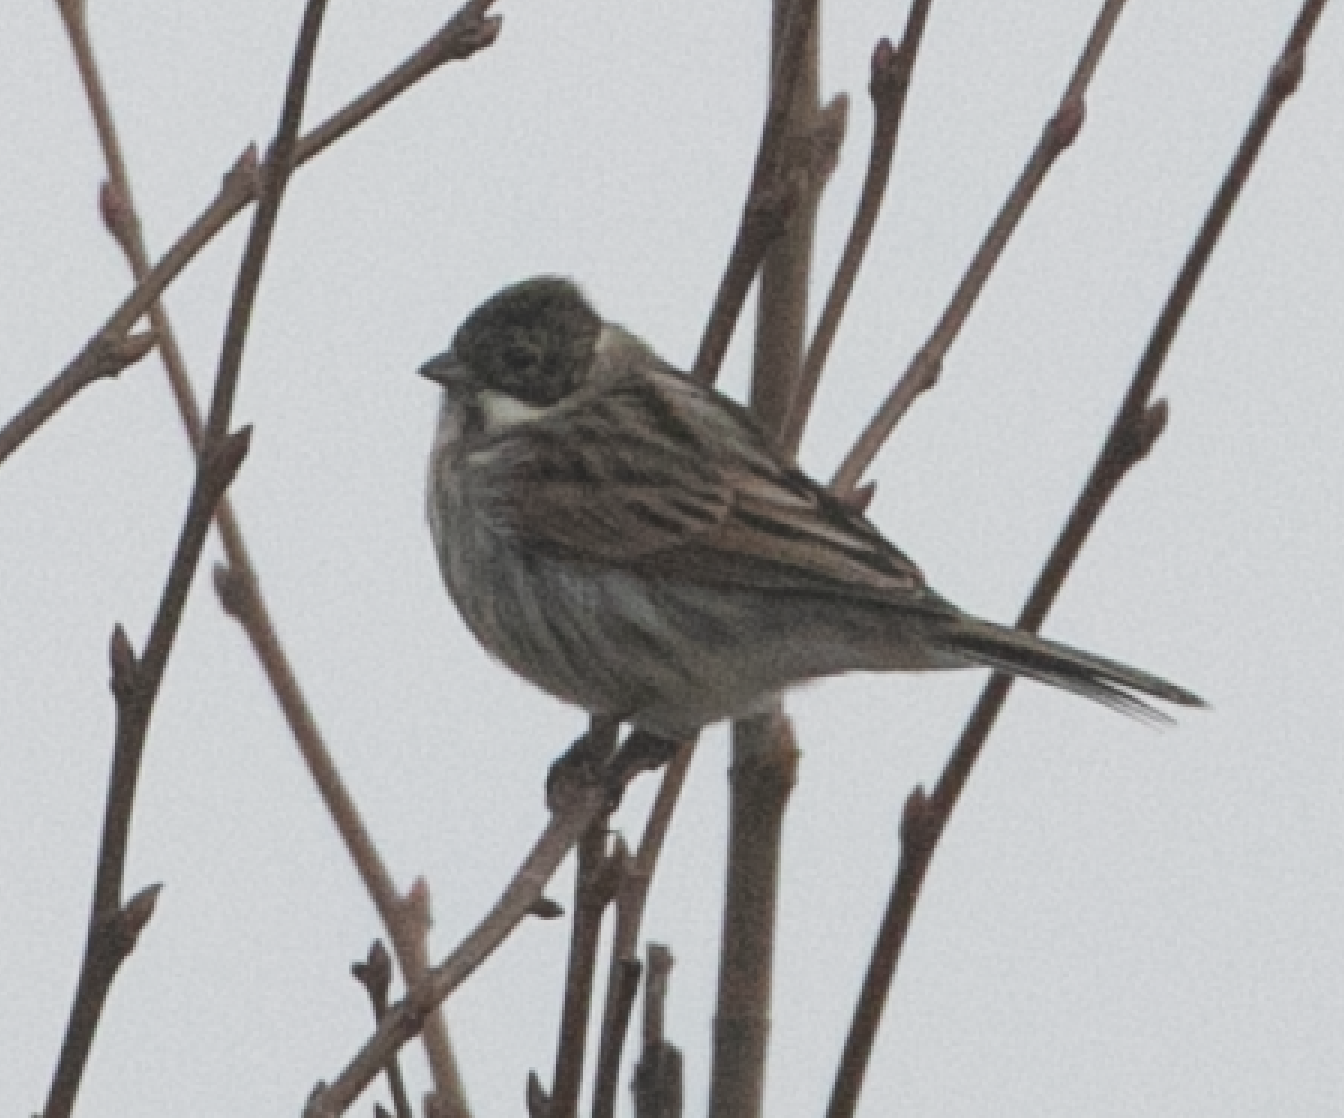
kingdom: Animalia
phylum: Chordata
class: Aves
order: Passeriformes
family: Emberizidae
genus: Emberiza
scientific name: Emberiza schoeniclus
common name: Reed bunting
